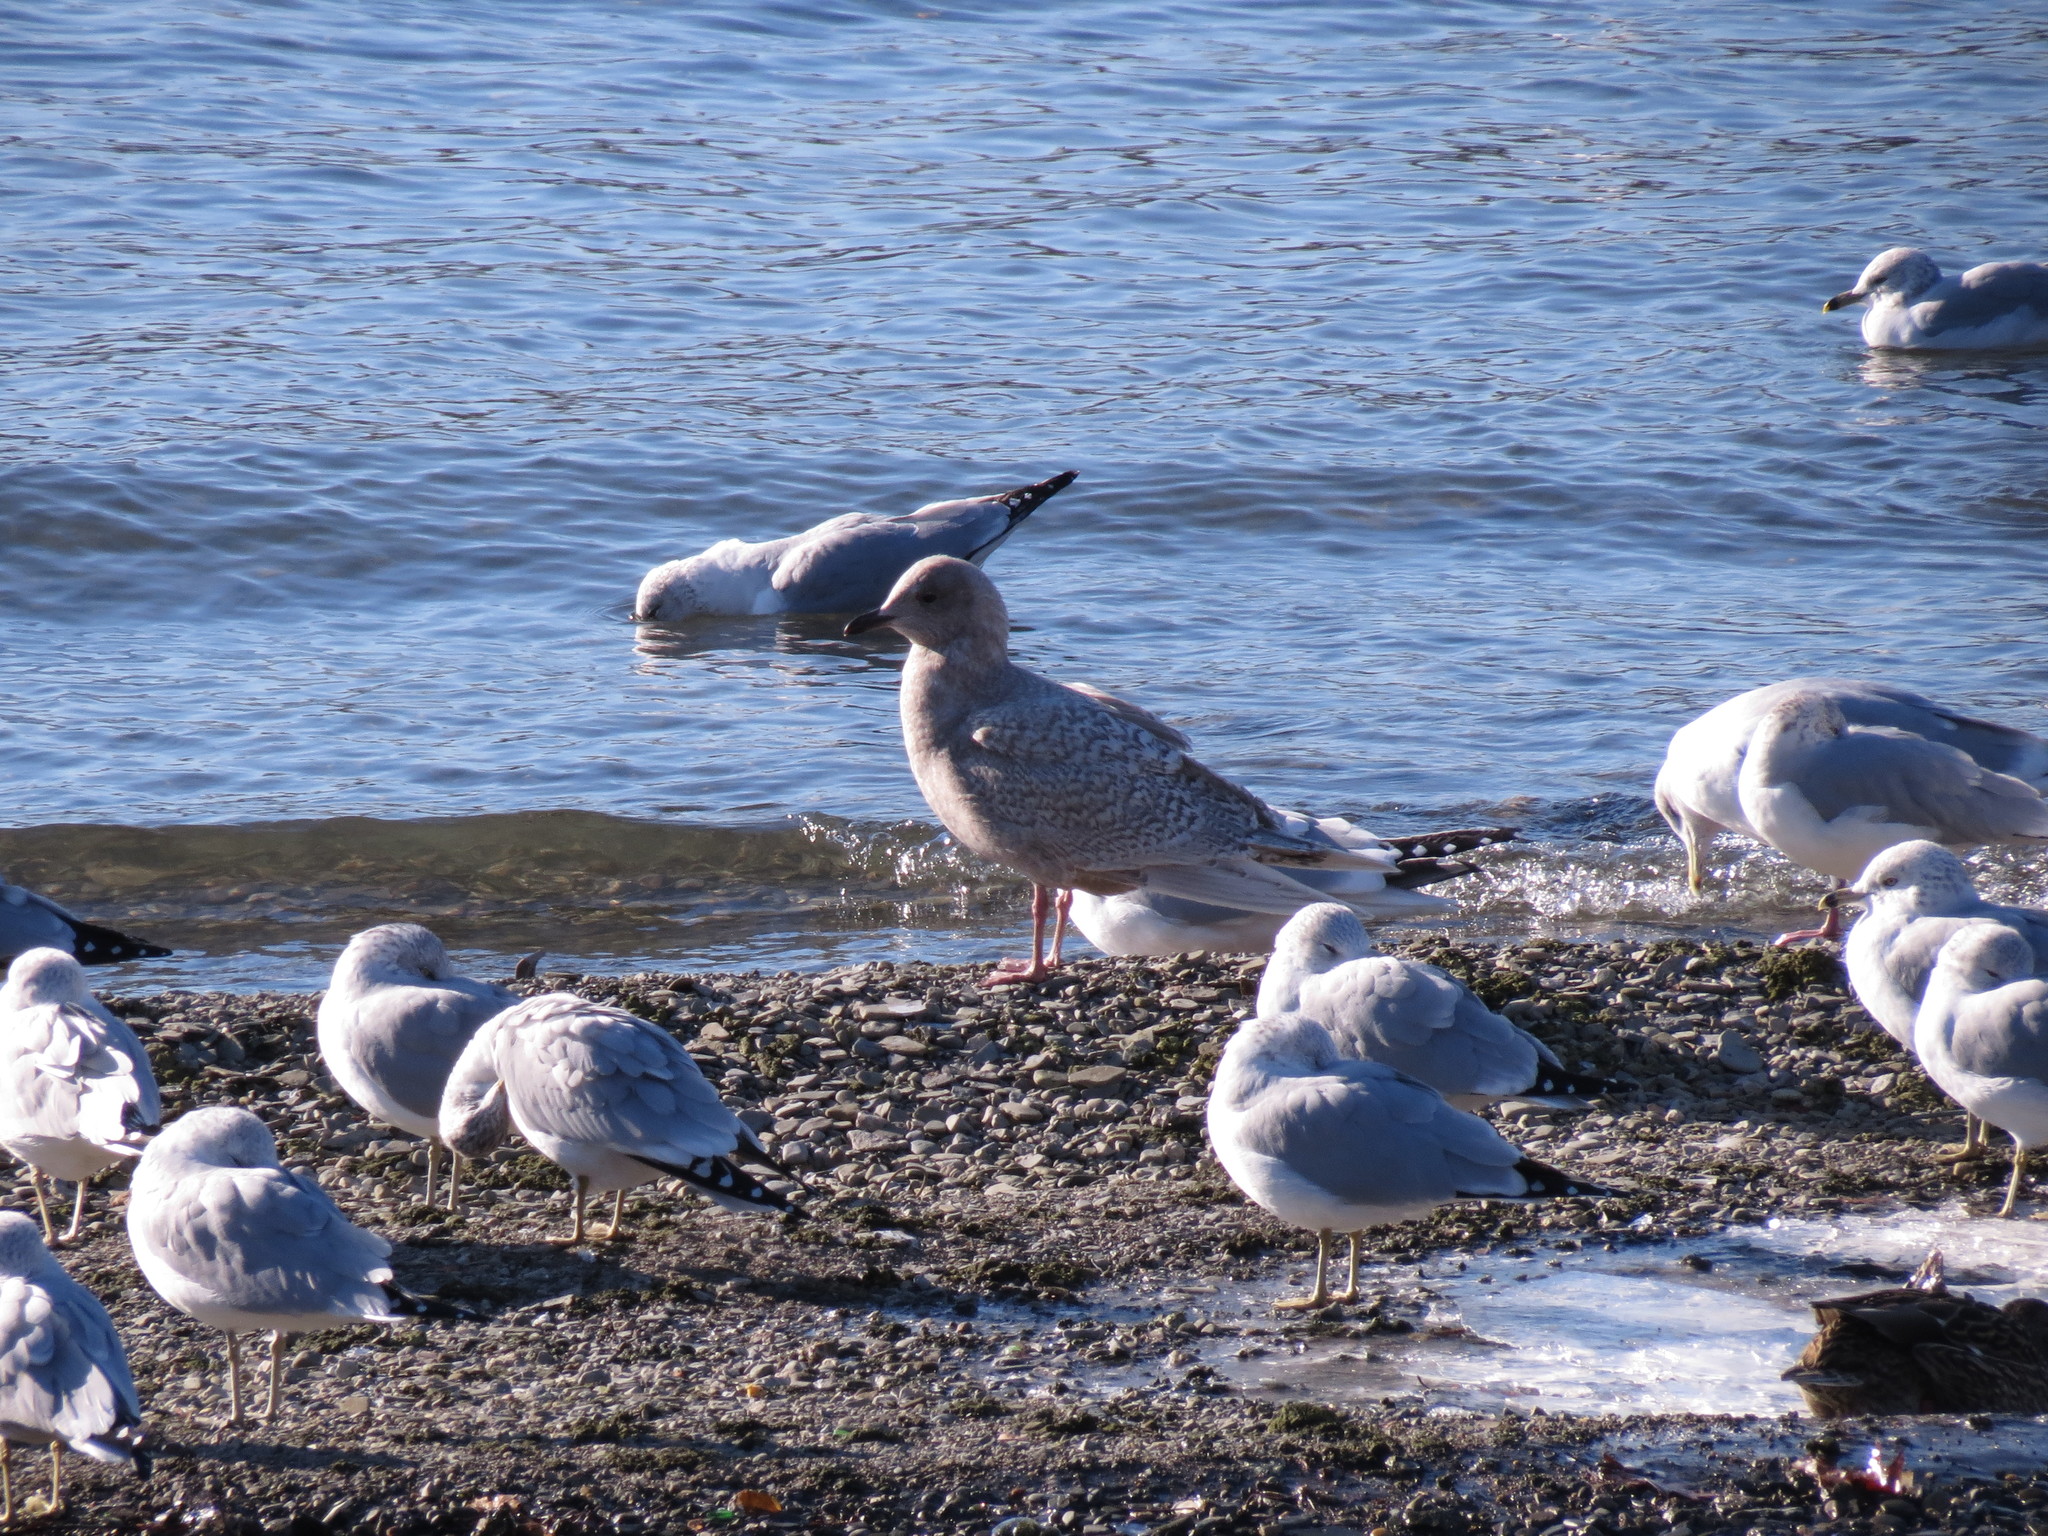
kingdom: Animalia
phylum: Chordata
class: Aves
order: Charadriiformes
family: Laridae
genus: Larus
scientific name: Larus glaucoides
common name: Iceland gull
